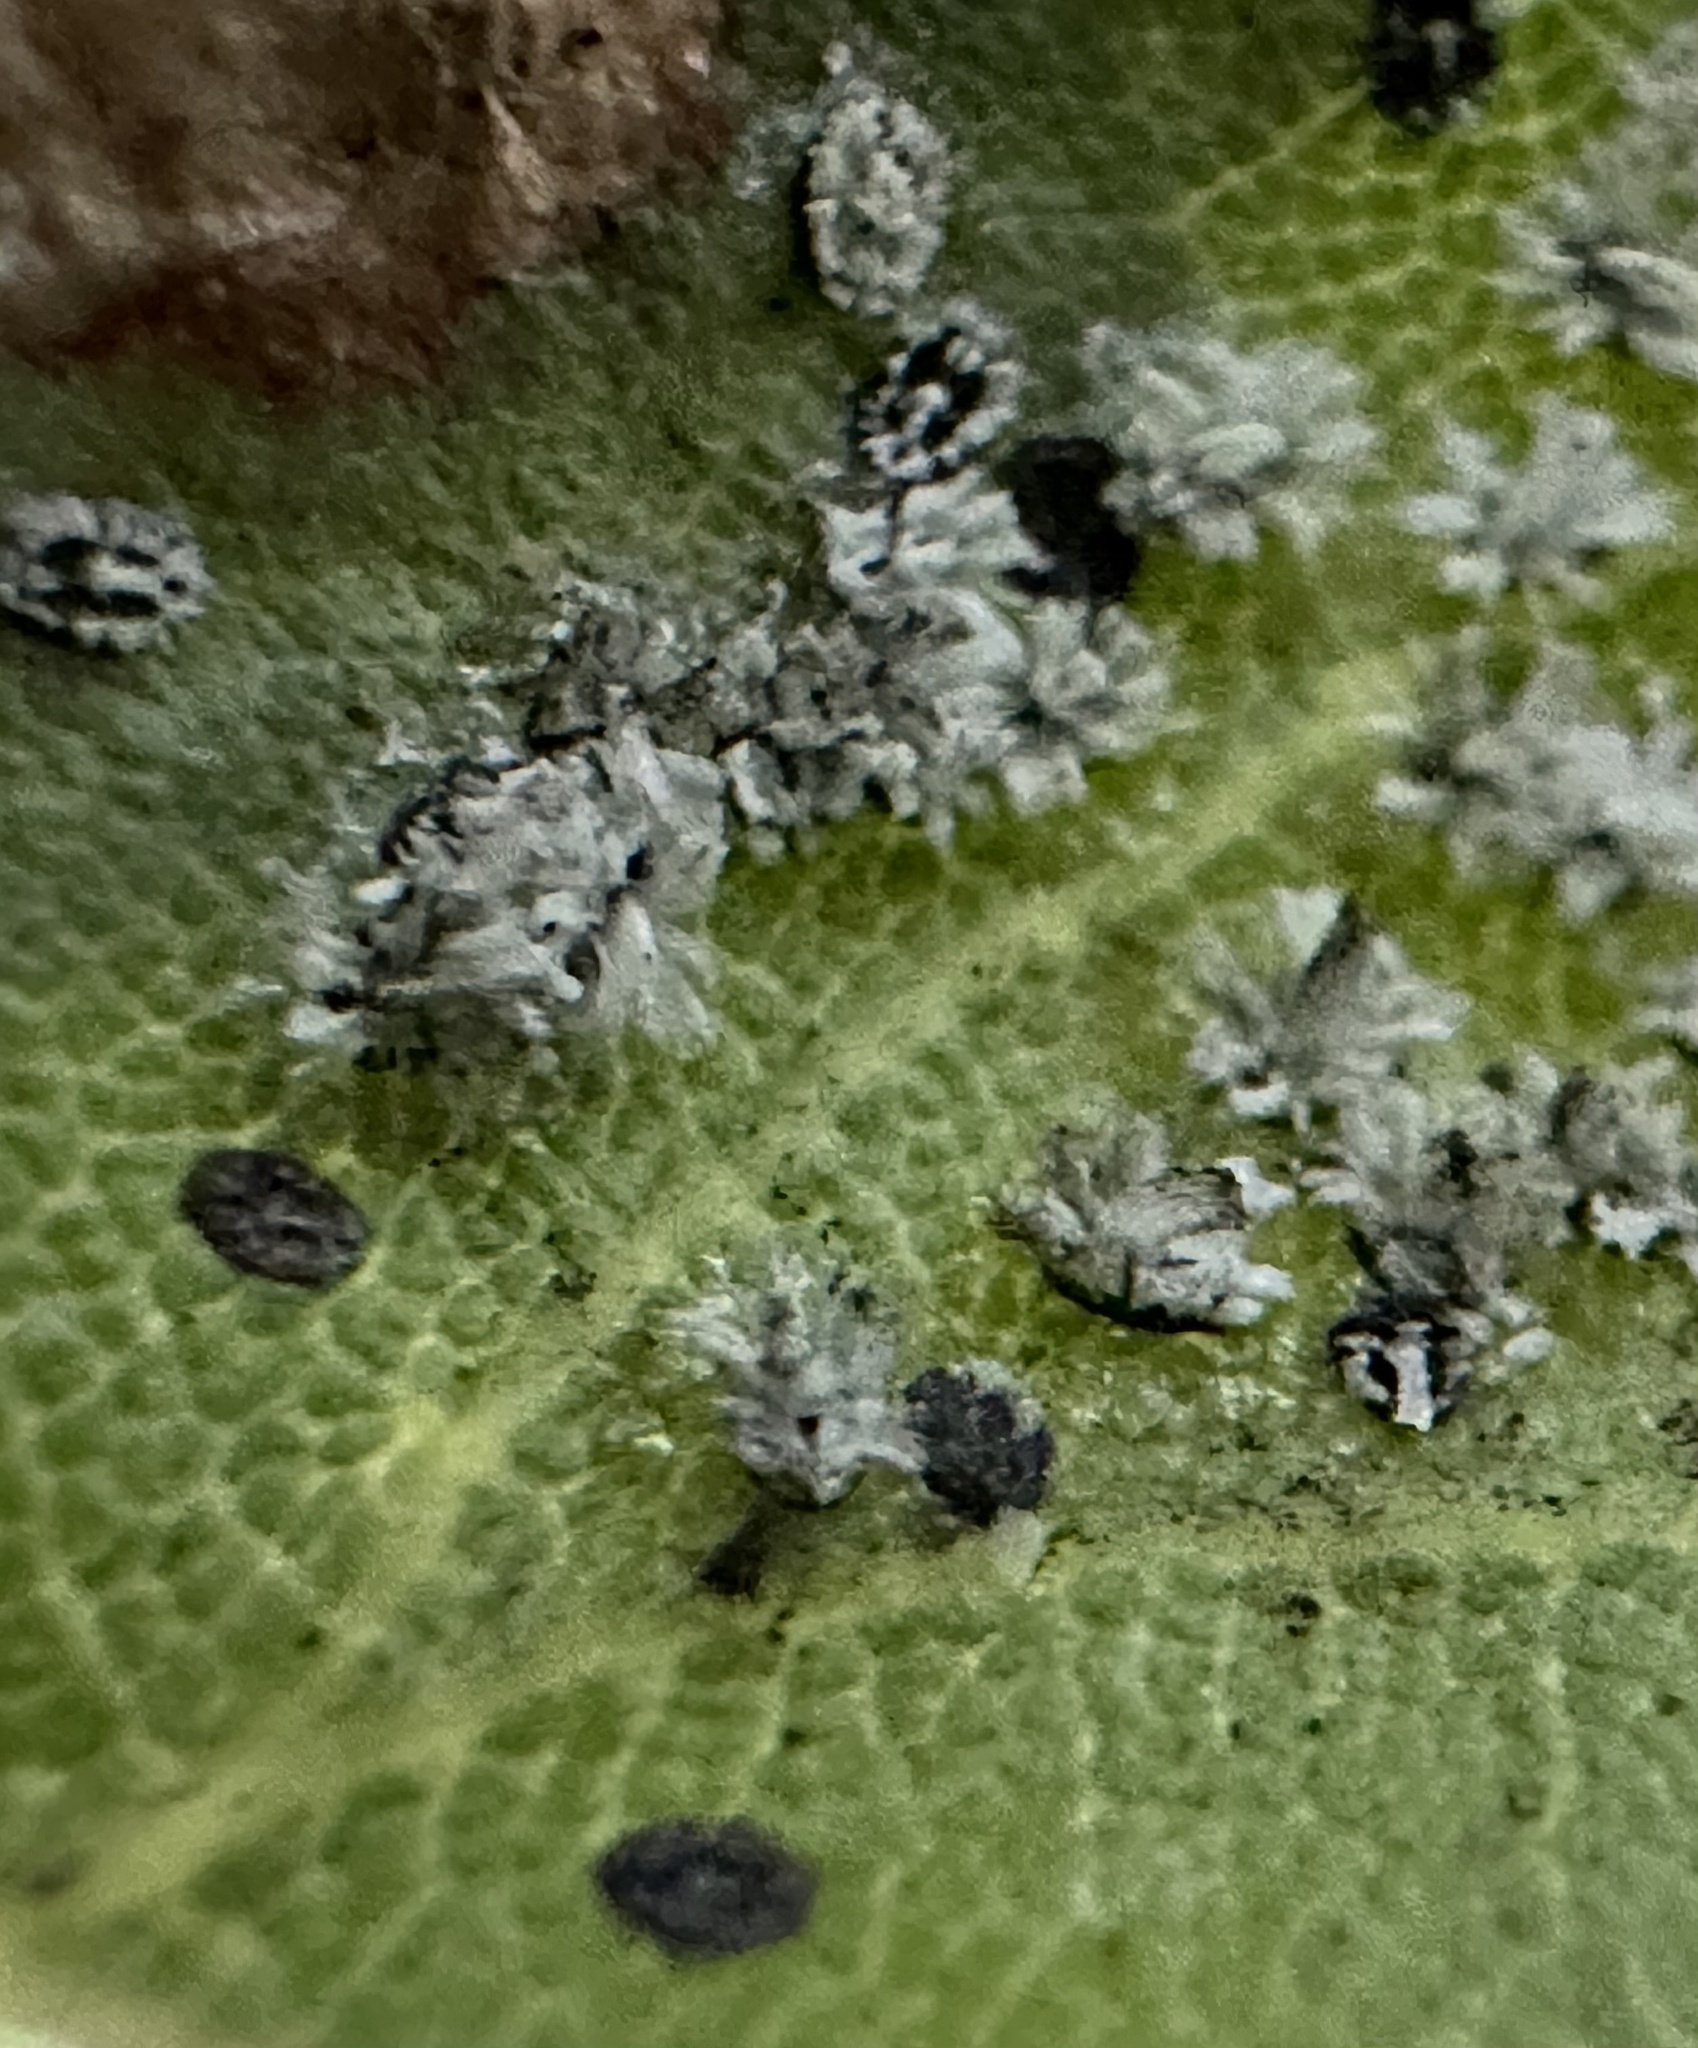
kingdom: Animalia
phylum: Arthropoda
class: Insecta
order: Hemiptera
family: Aleyrodidae
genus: Aleuroplatus
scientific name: Aleuroplatus coronata
